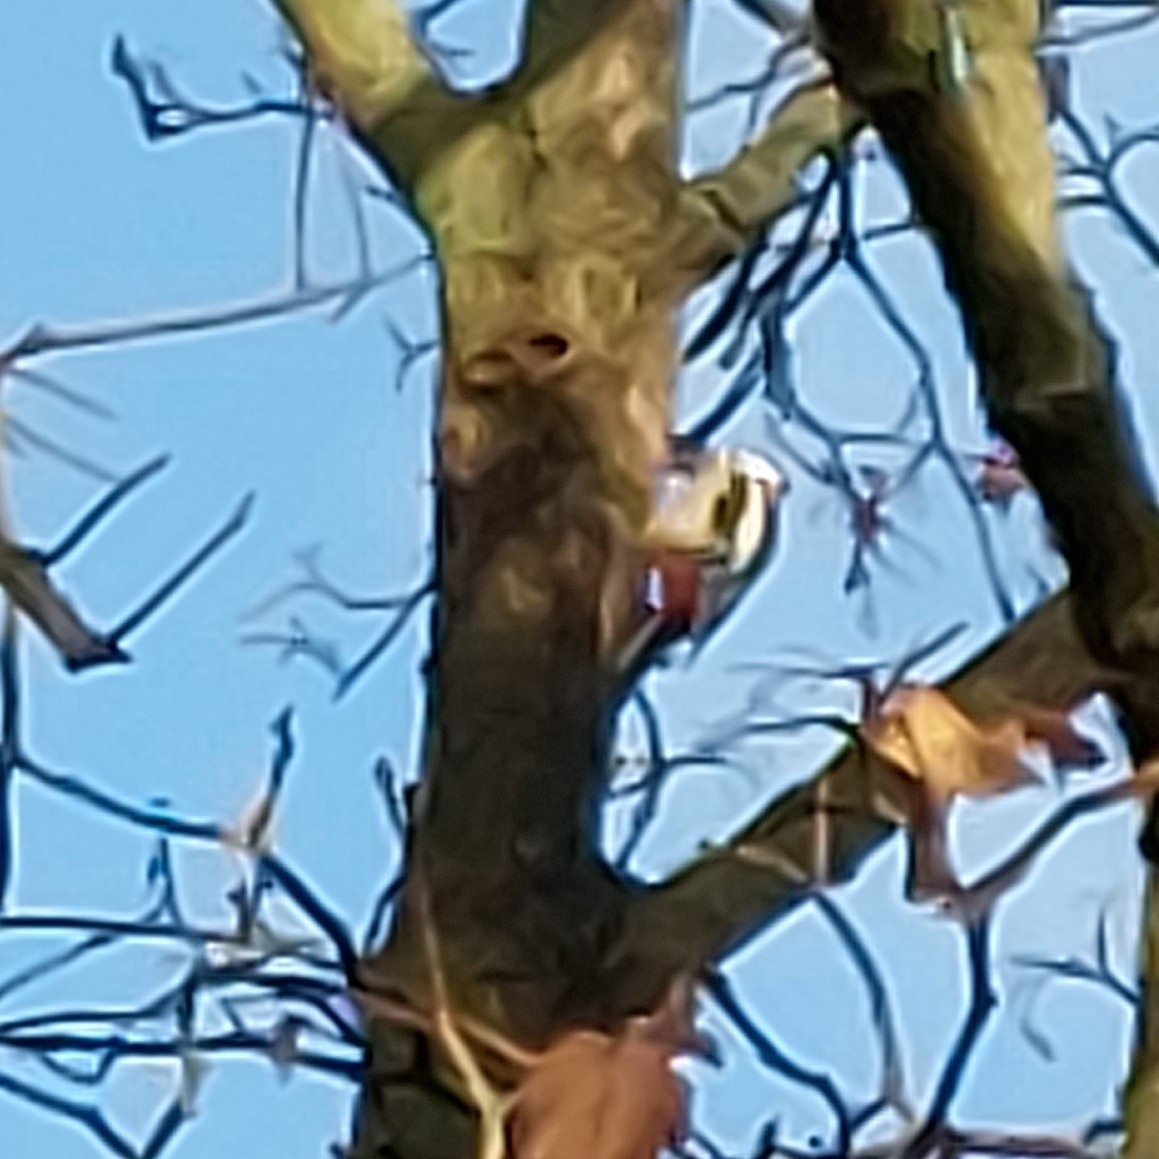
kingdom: Animalia
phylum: Chordata
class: Aves
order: Piciformes
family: Picidae
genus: Dendrocopos
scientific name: Dendrocopos major
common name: Great spotted woodpecker
